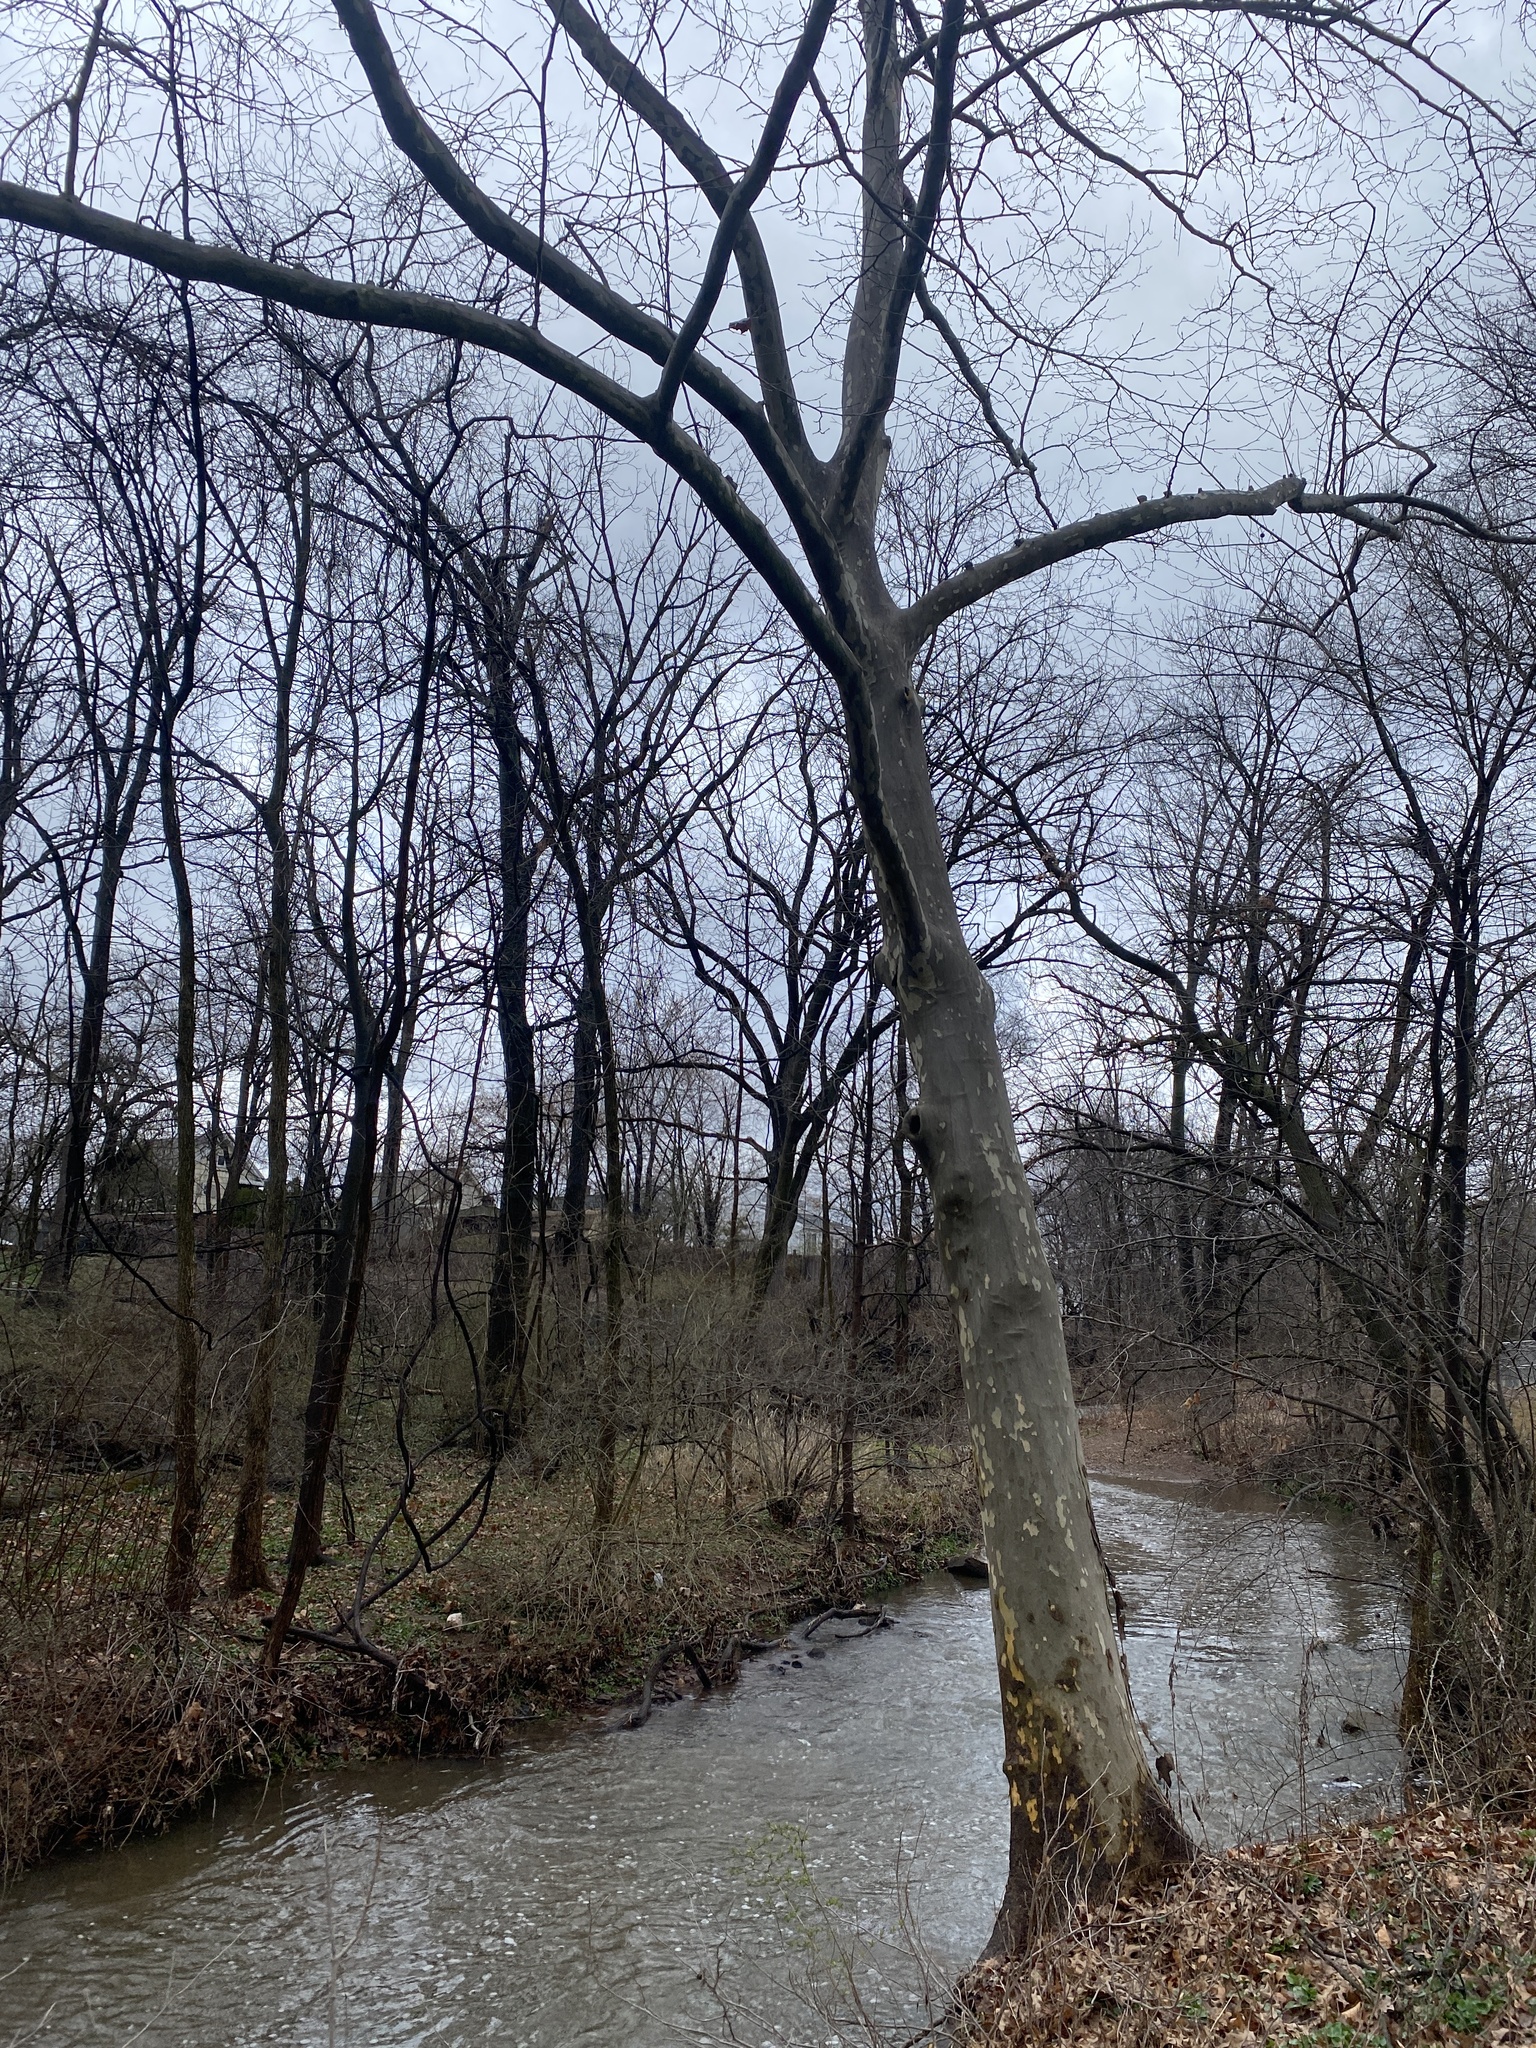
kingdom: Plantae
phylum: Tracheophyta
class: Magnoliopsida
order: Proteales
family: Platanaceae
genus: Platanus
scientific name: Platanus occidentalis
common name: American sycamore
